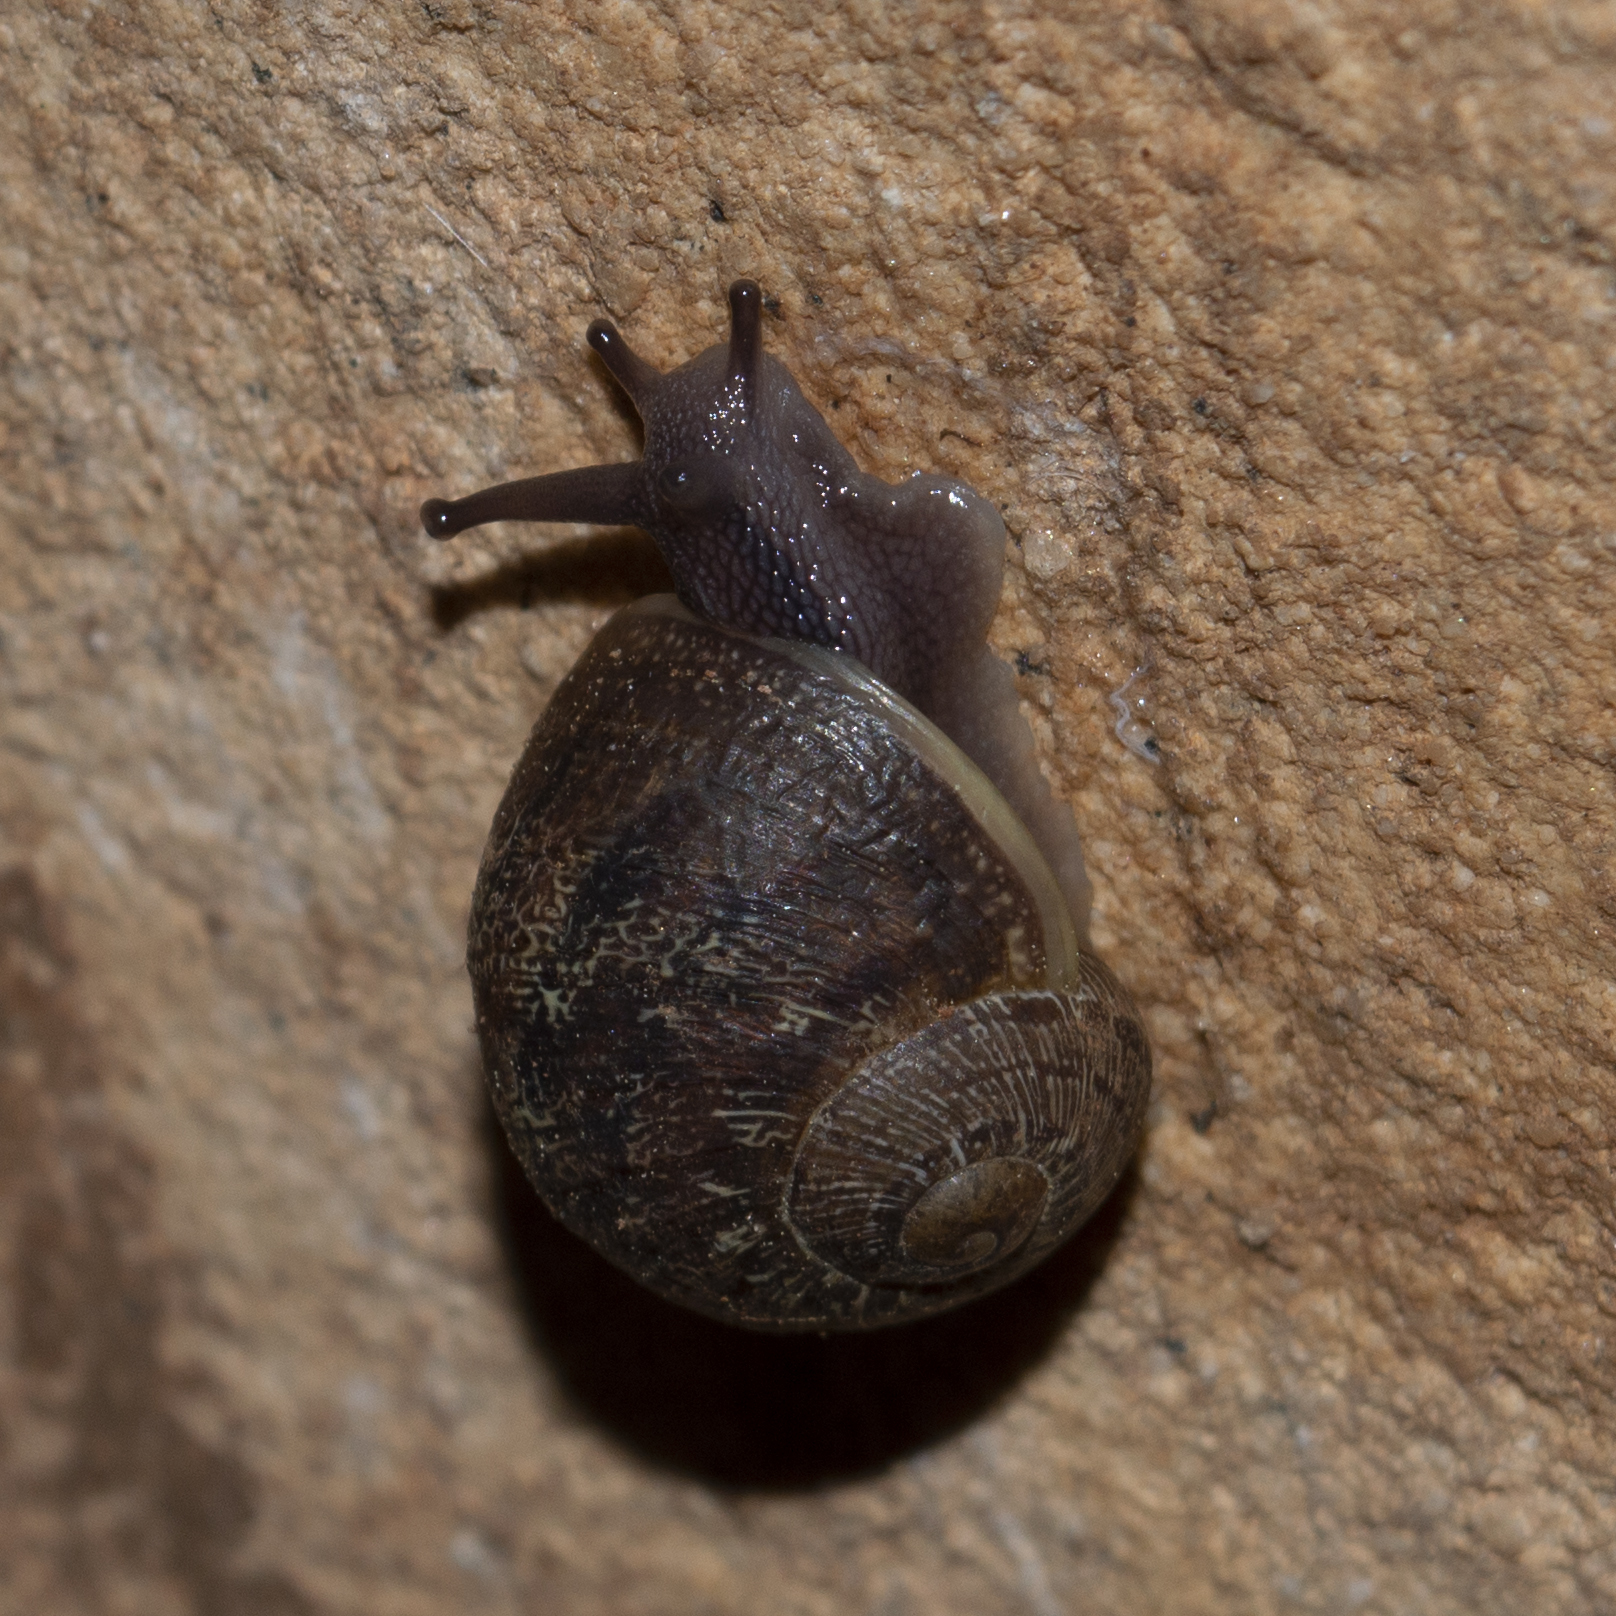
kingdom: Animalia
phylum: Mollusca
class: Gastropoda
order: Stylommatophora
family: Helicidae
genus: Cornu
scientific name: Cornu aspersum
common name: Brown garden snail
